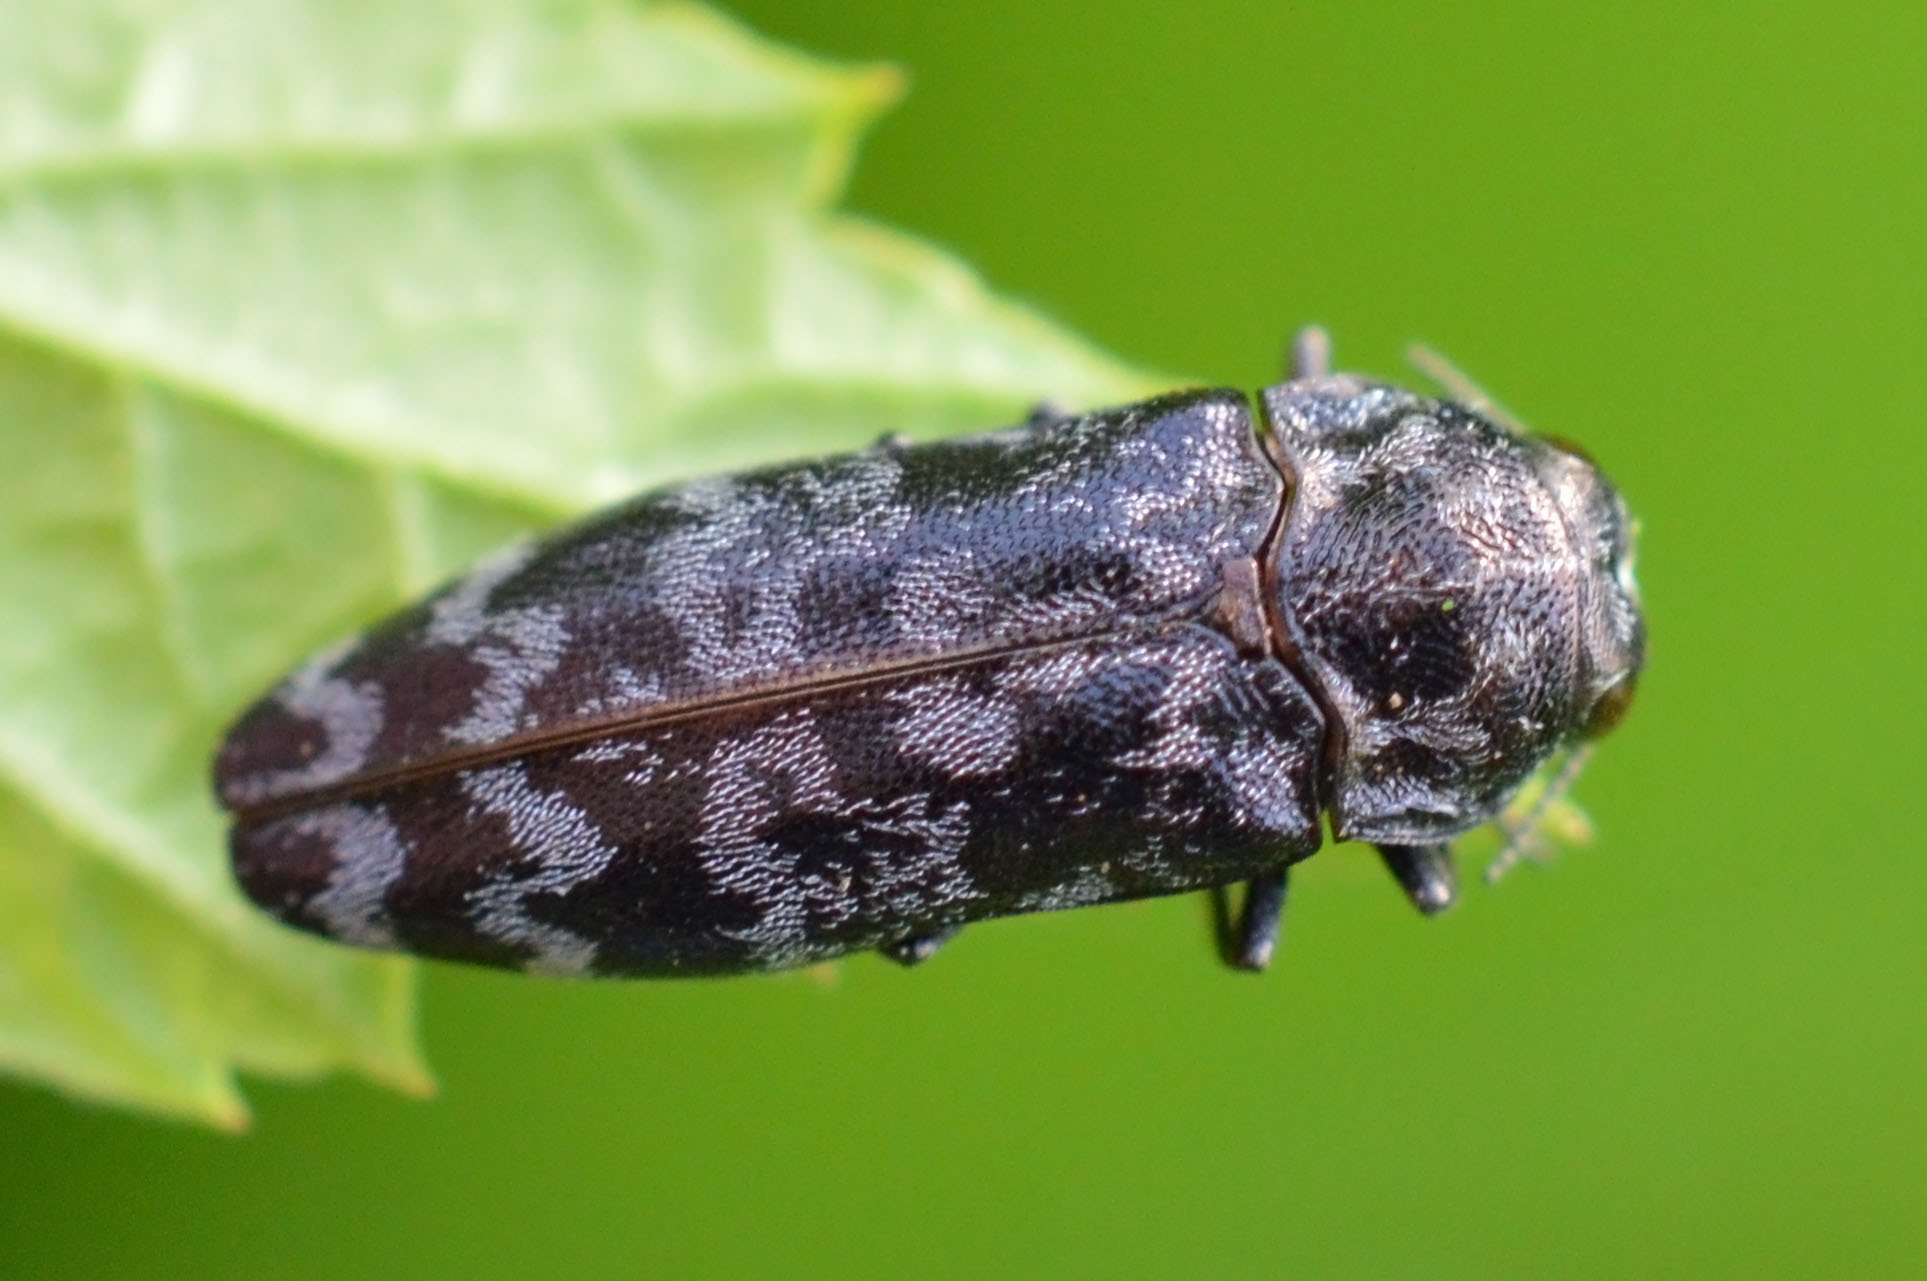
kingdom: Animalia
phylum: Arthropoda
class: Insecta
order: Coleoptera
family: Buprestidae
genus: Coraebus
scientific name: Coraebus rubi
